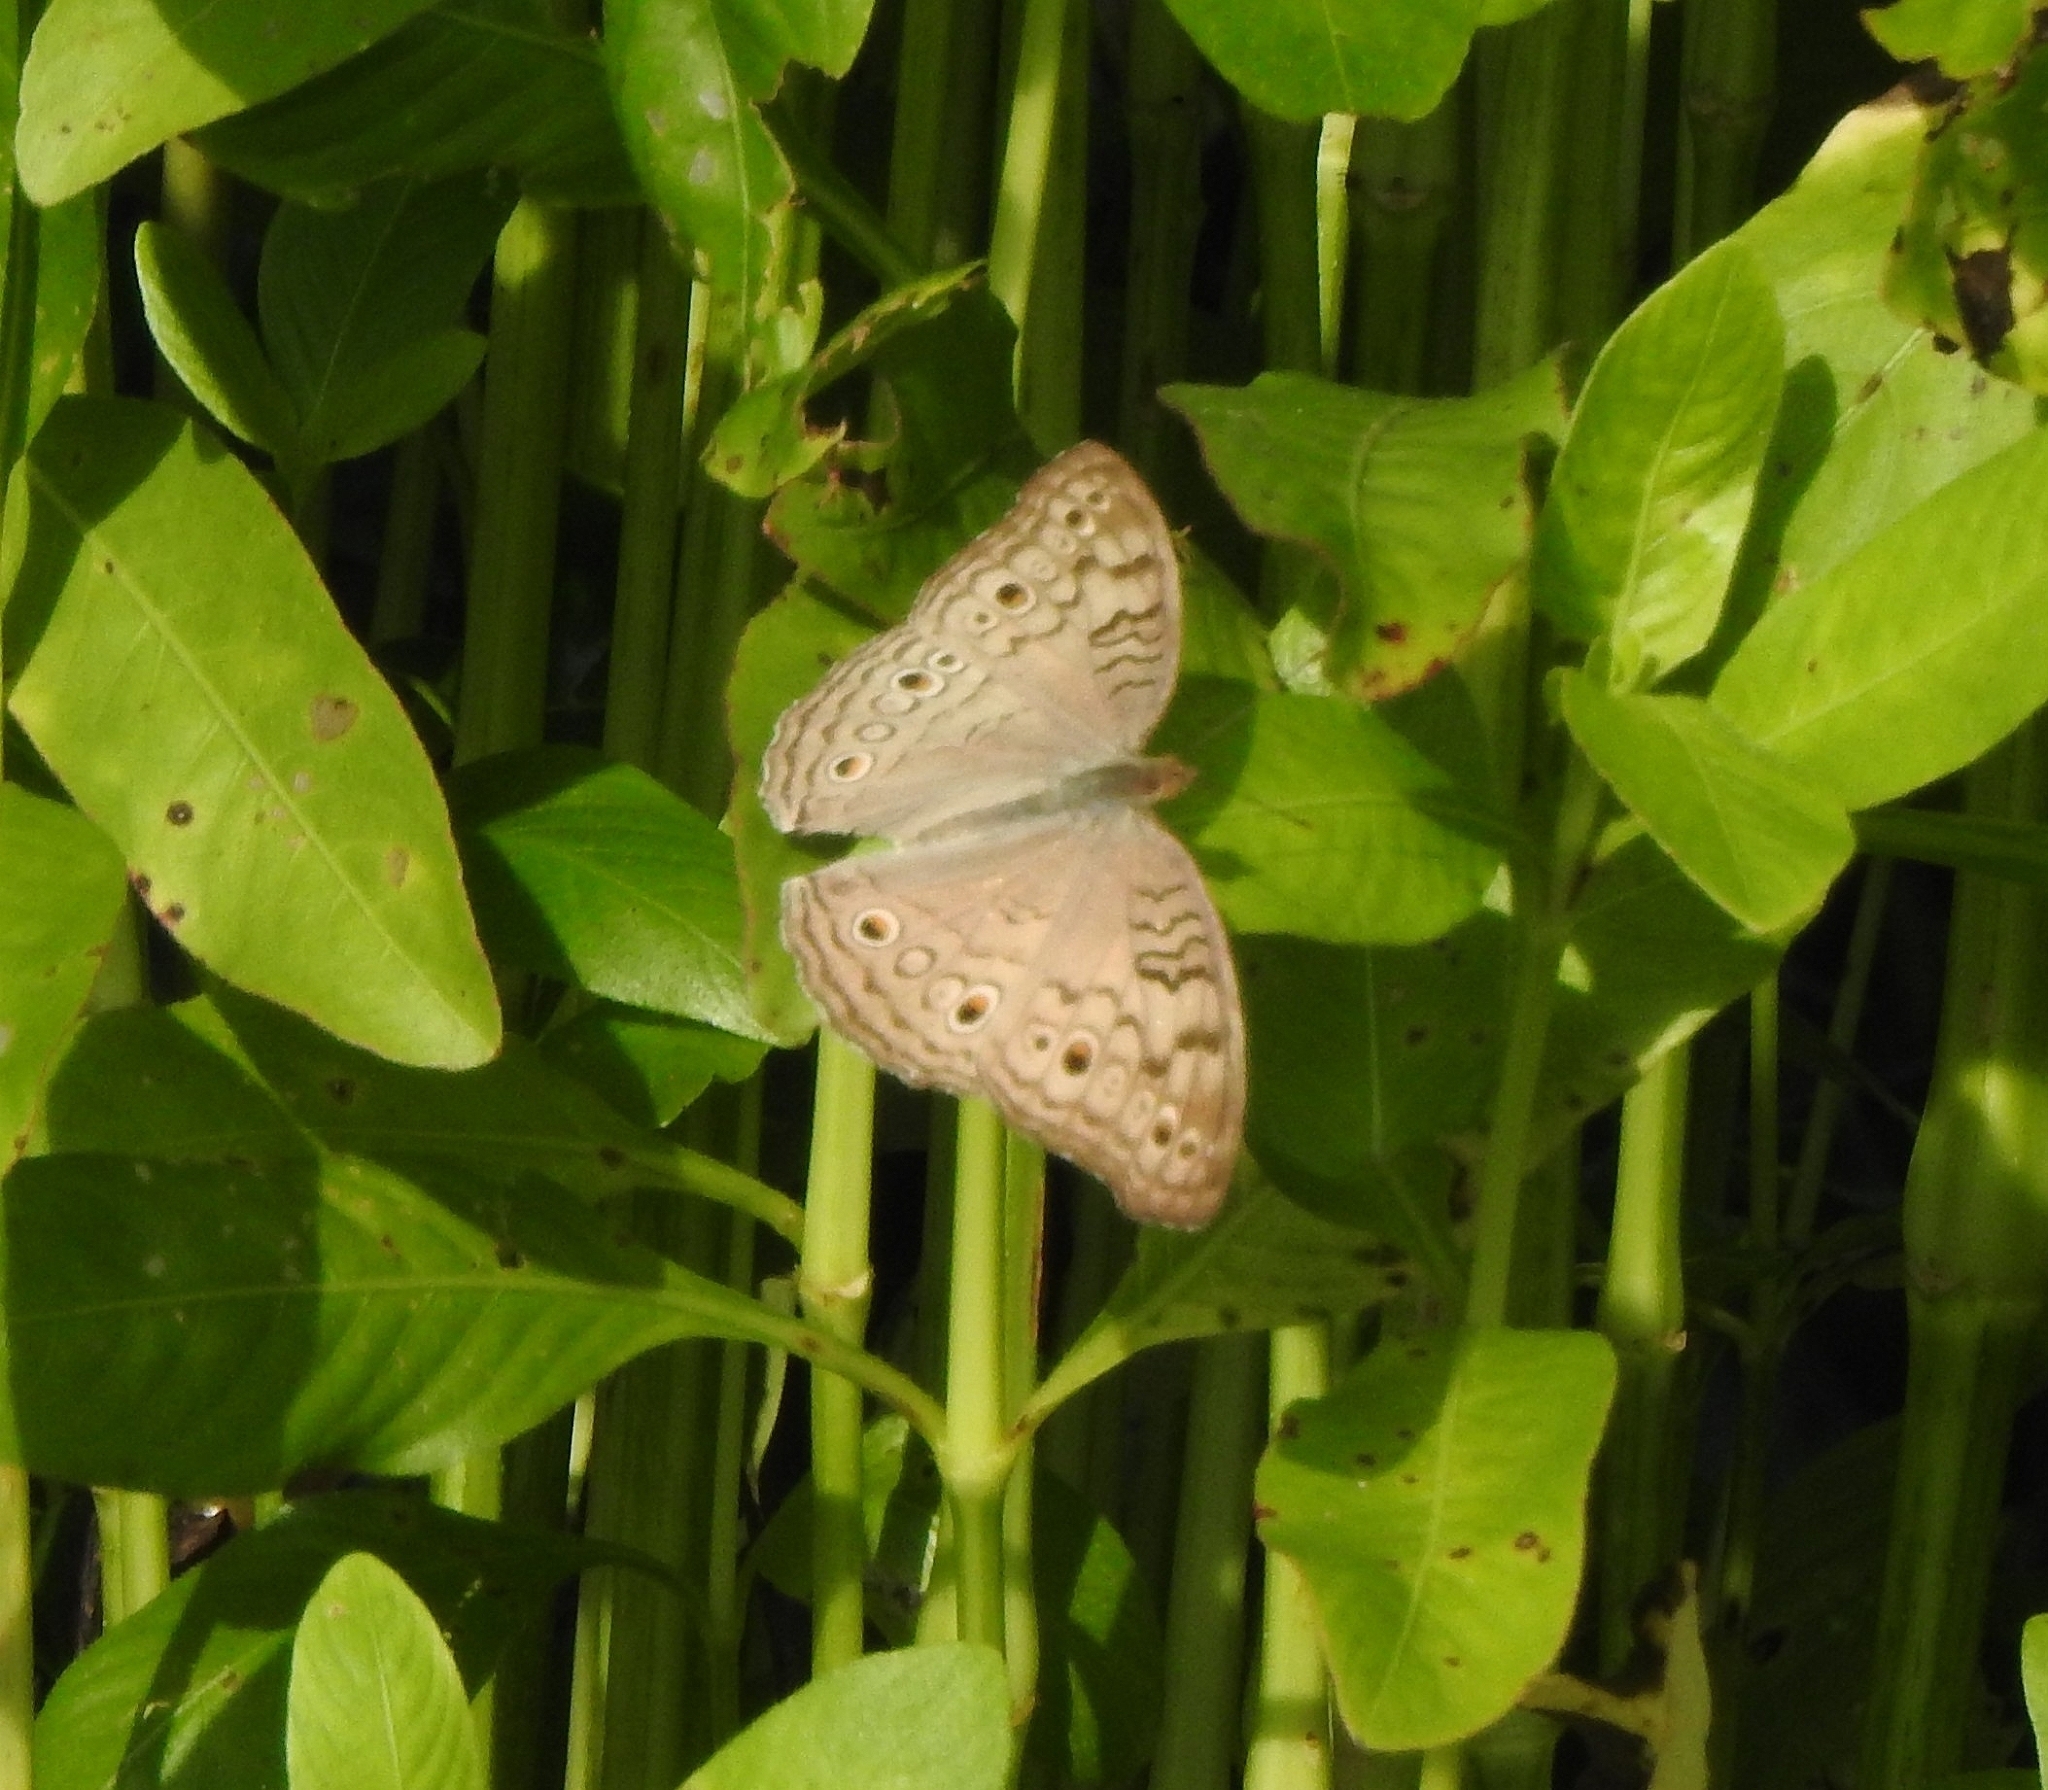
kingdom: Animalia
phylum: Arthropoda
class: Insecta
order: Lepidoptera
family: Nymphalidae
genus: Junonia
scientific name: Junonia atlites
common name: Grey pansy
